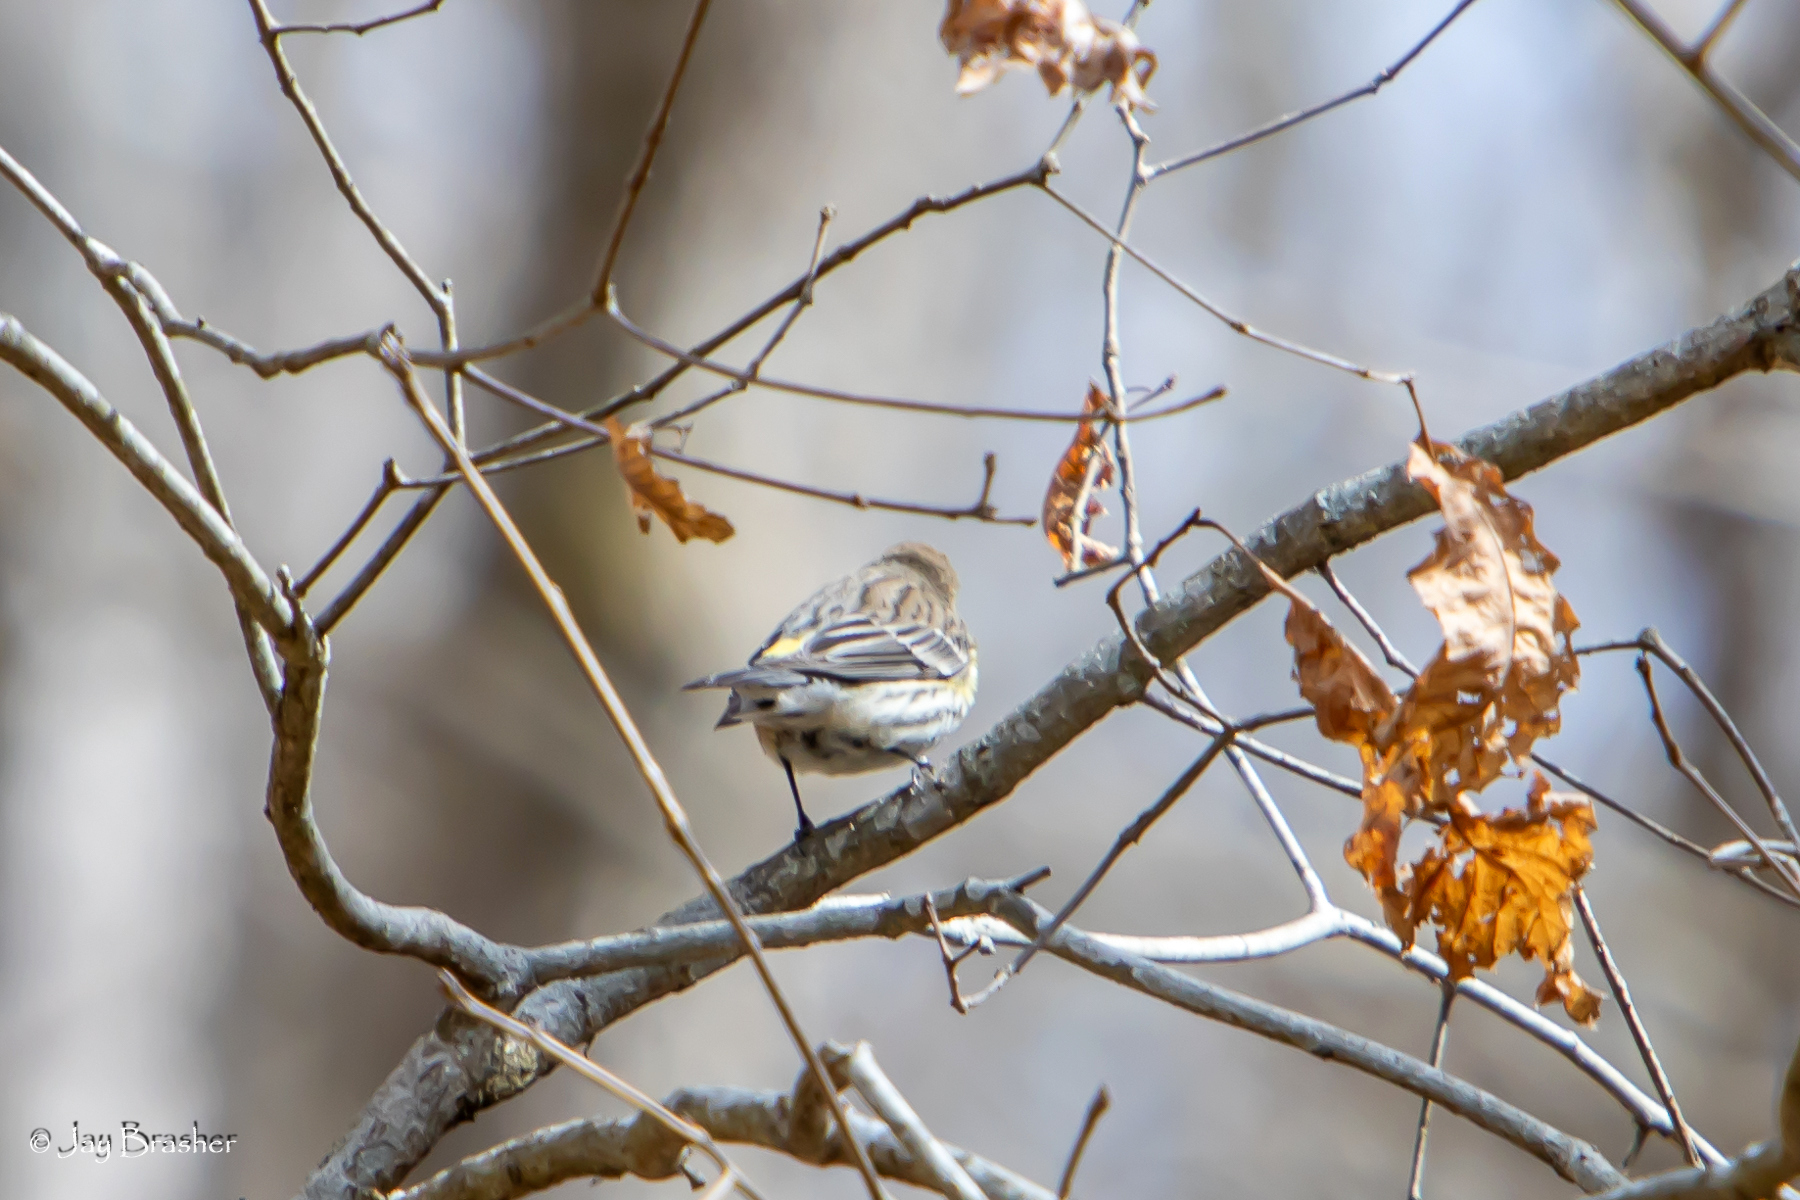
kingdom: Animalia
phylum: Chordata
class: Aves
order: Passeriformes
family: Parulidae
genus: Setophaga
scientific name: Setophaga coronata
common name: Myrtle warbler
